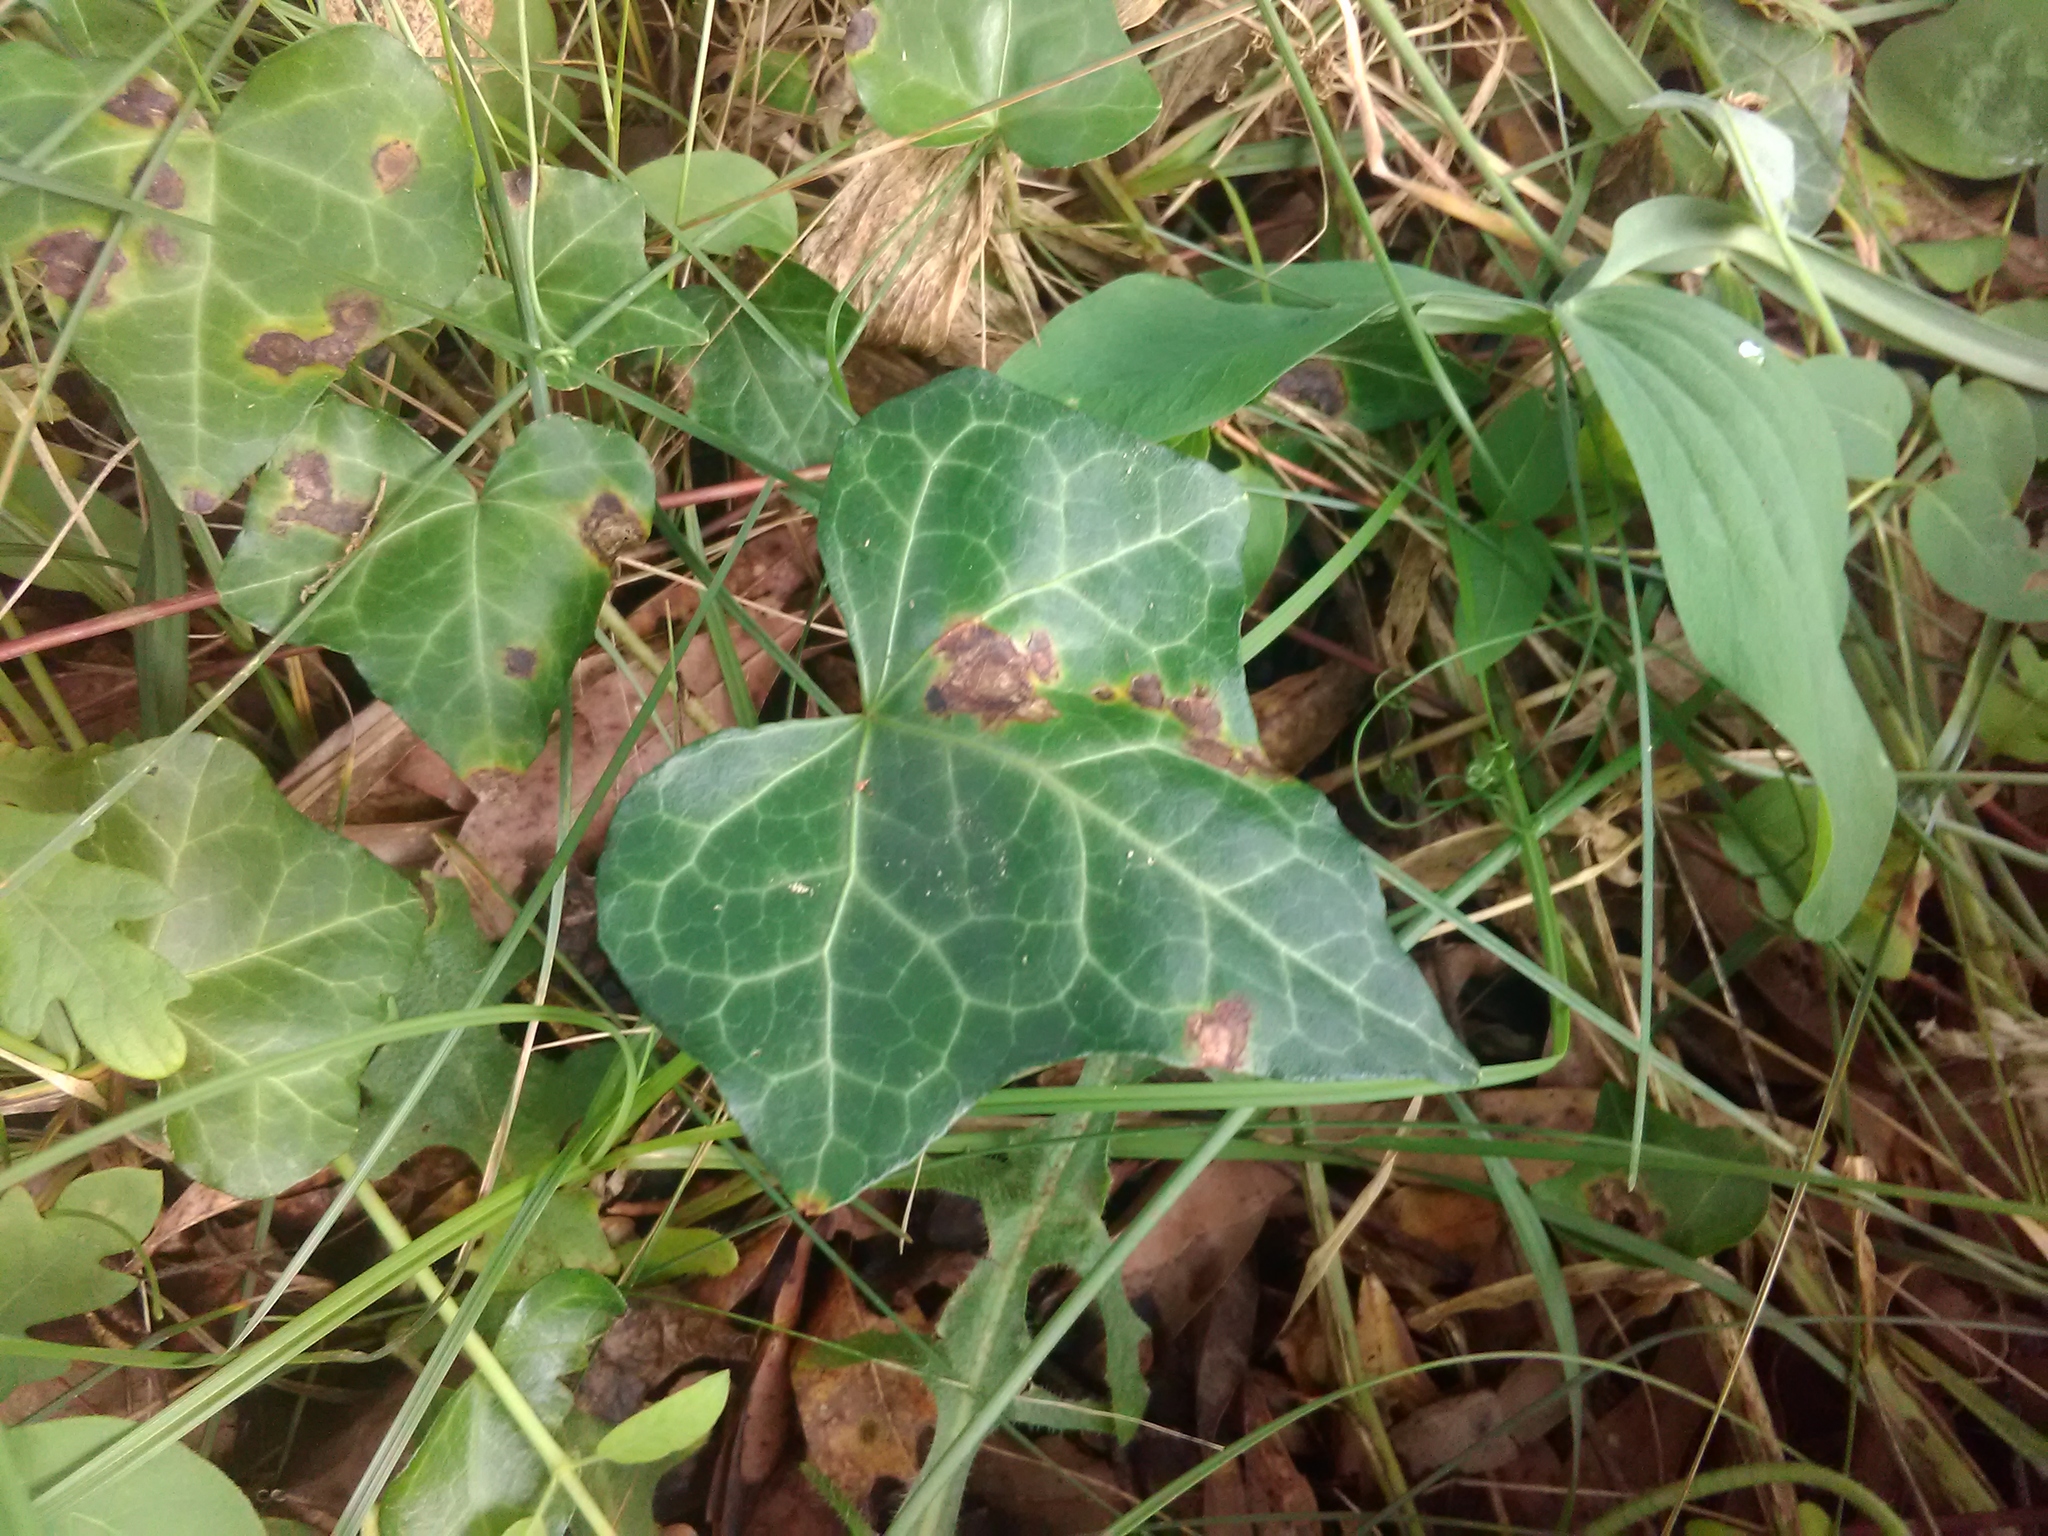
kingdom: Plantae
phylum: Tracheophyta
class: Magnoliopsida
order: Apiales
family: Araliaceae
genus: Hedera
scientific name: Hedera helix
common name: Ivy
